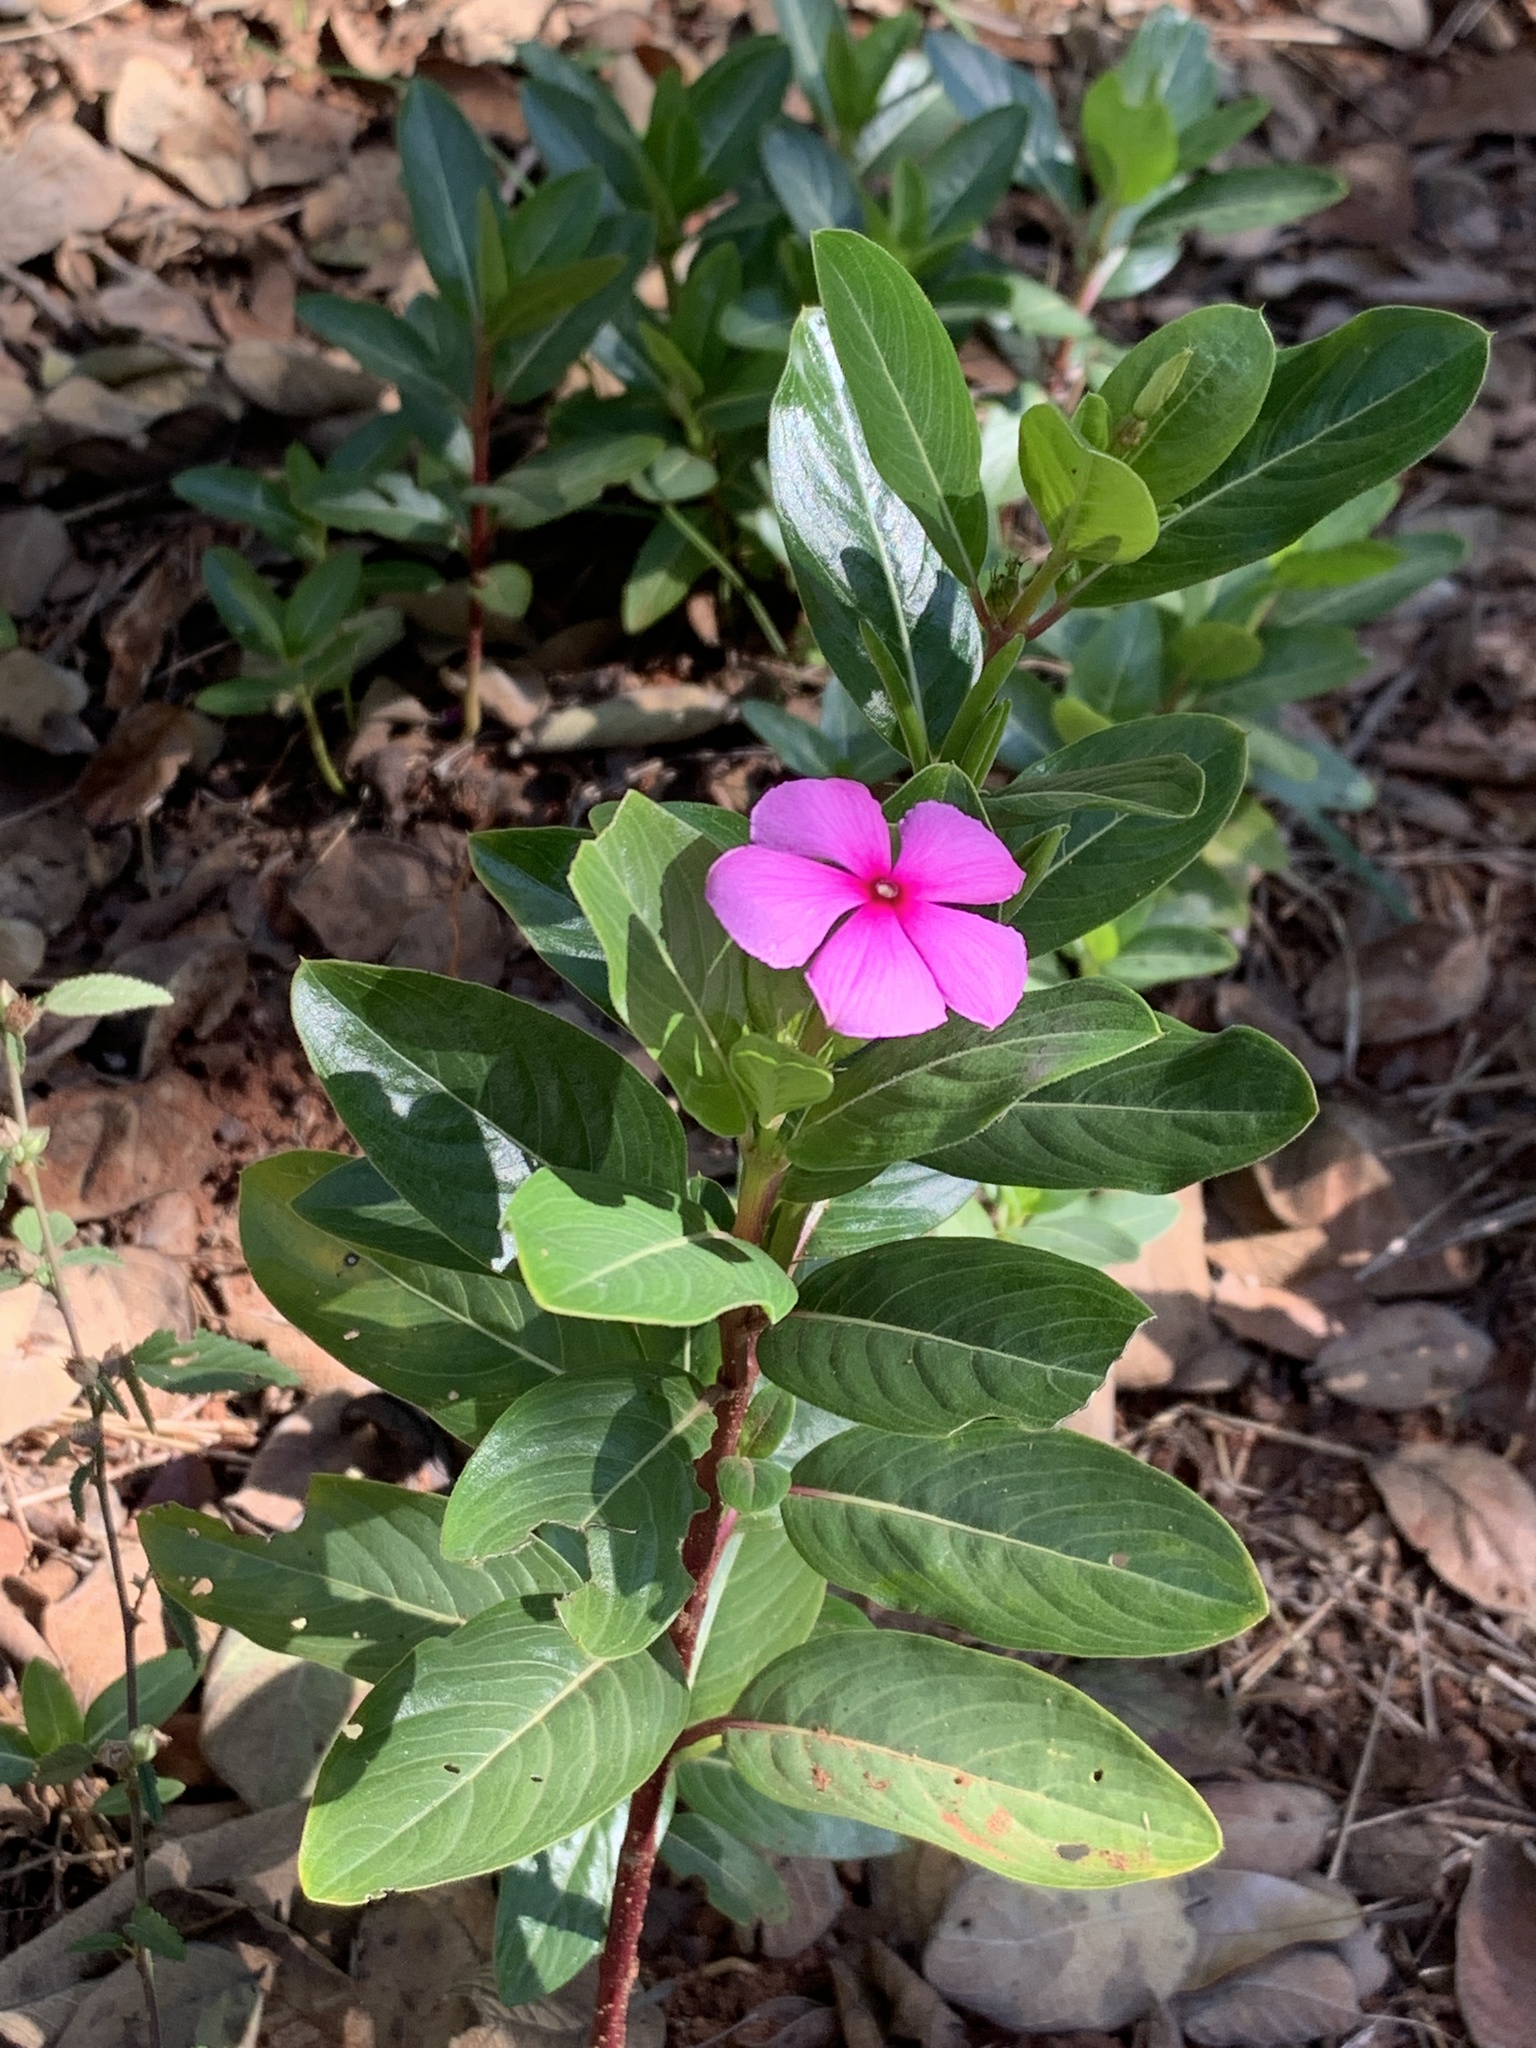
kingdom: Plantae
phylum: Tracheophyta
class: Magnoliopsida
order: Gentianales
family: Apocynaceae
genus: Catharanthus
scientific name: Catharanthus roseus
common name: Madagascar periwinkle
